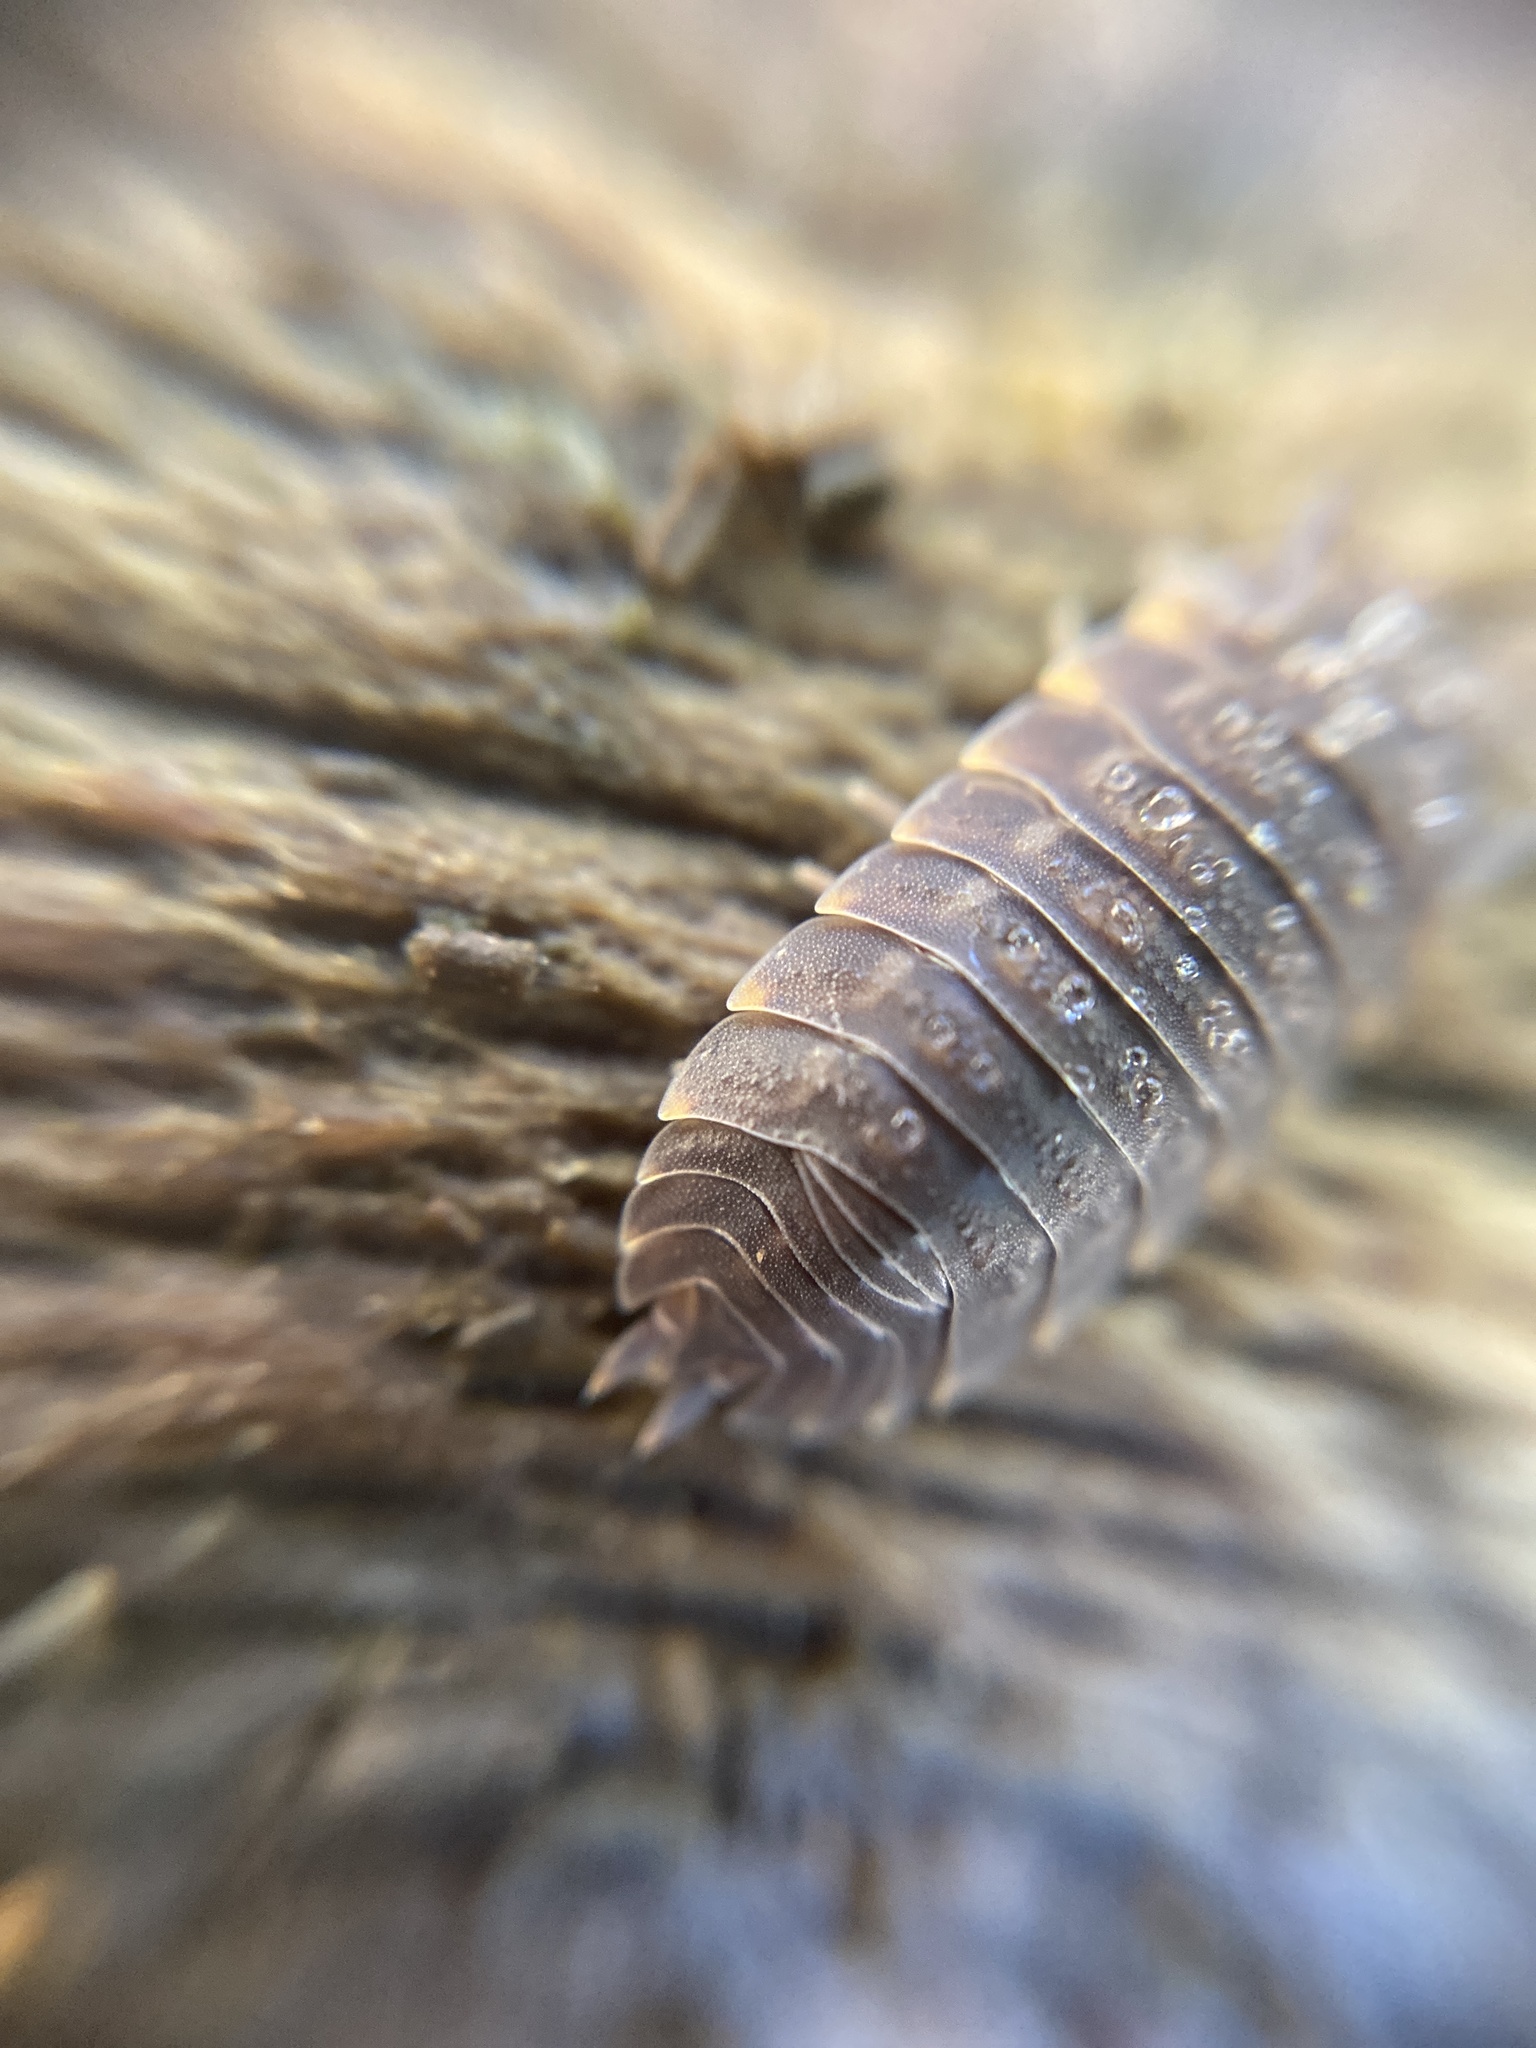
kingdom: Animalia
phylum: Arthropoda
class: Malacostraca
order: Isopoda
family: Trachelipodidae
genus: Trachelipus
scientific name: Trachelipus ratzeburgii
